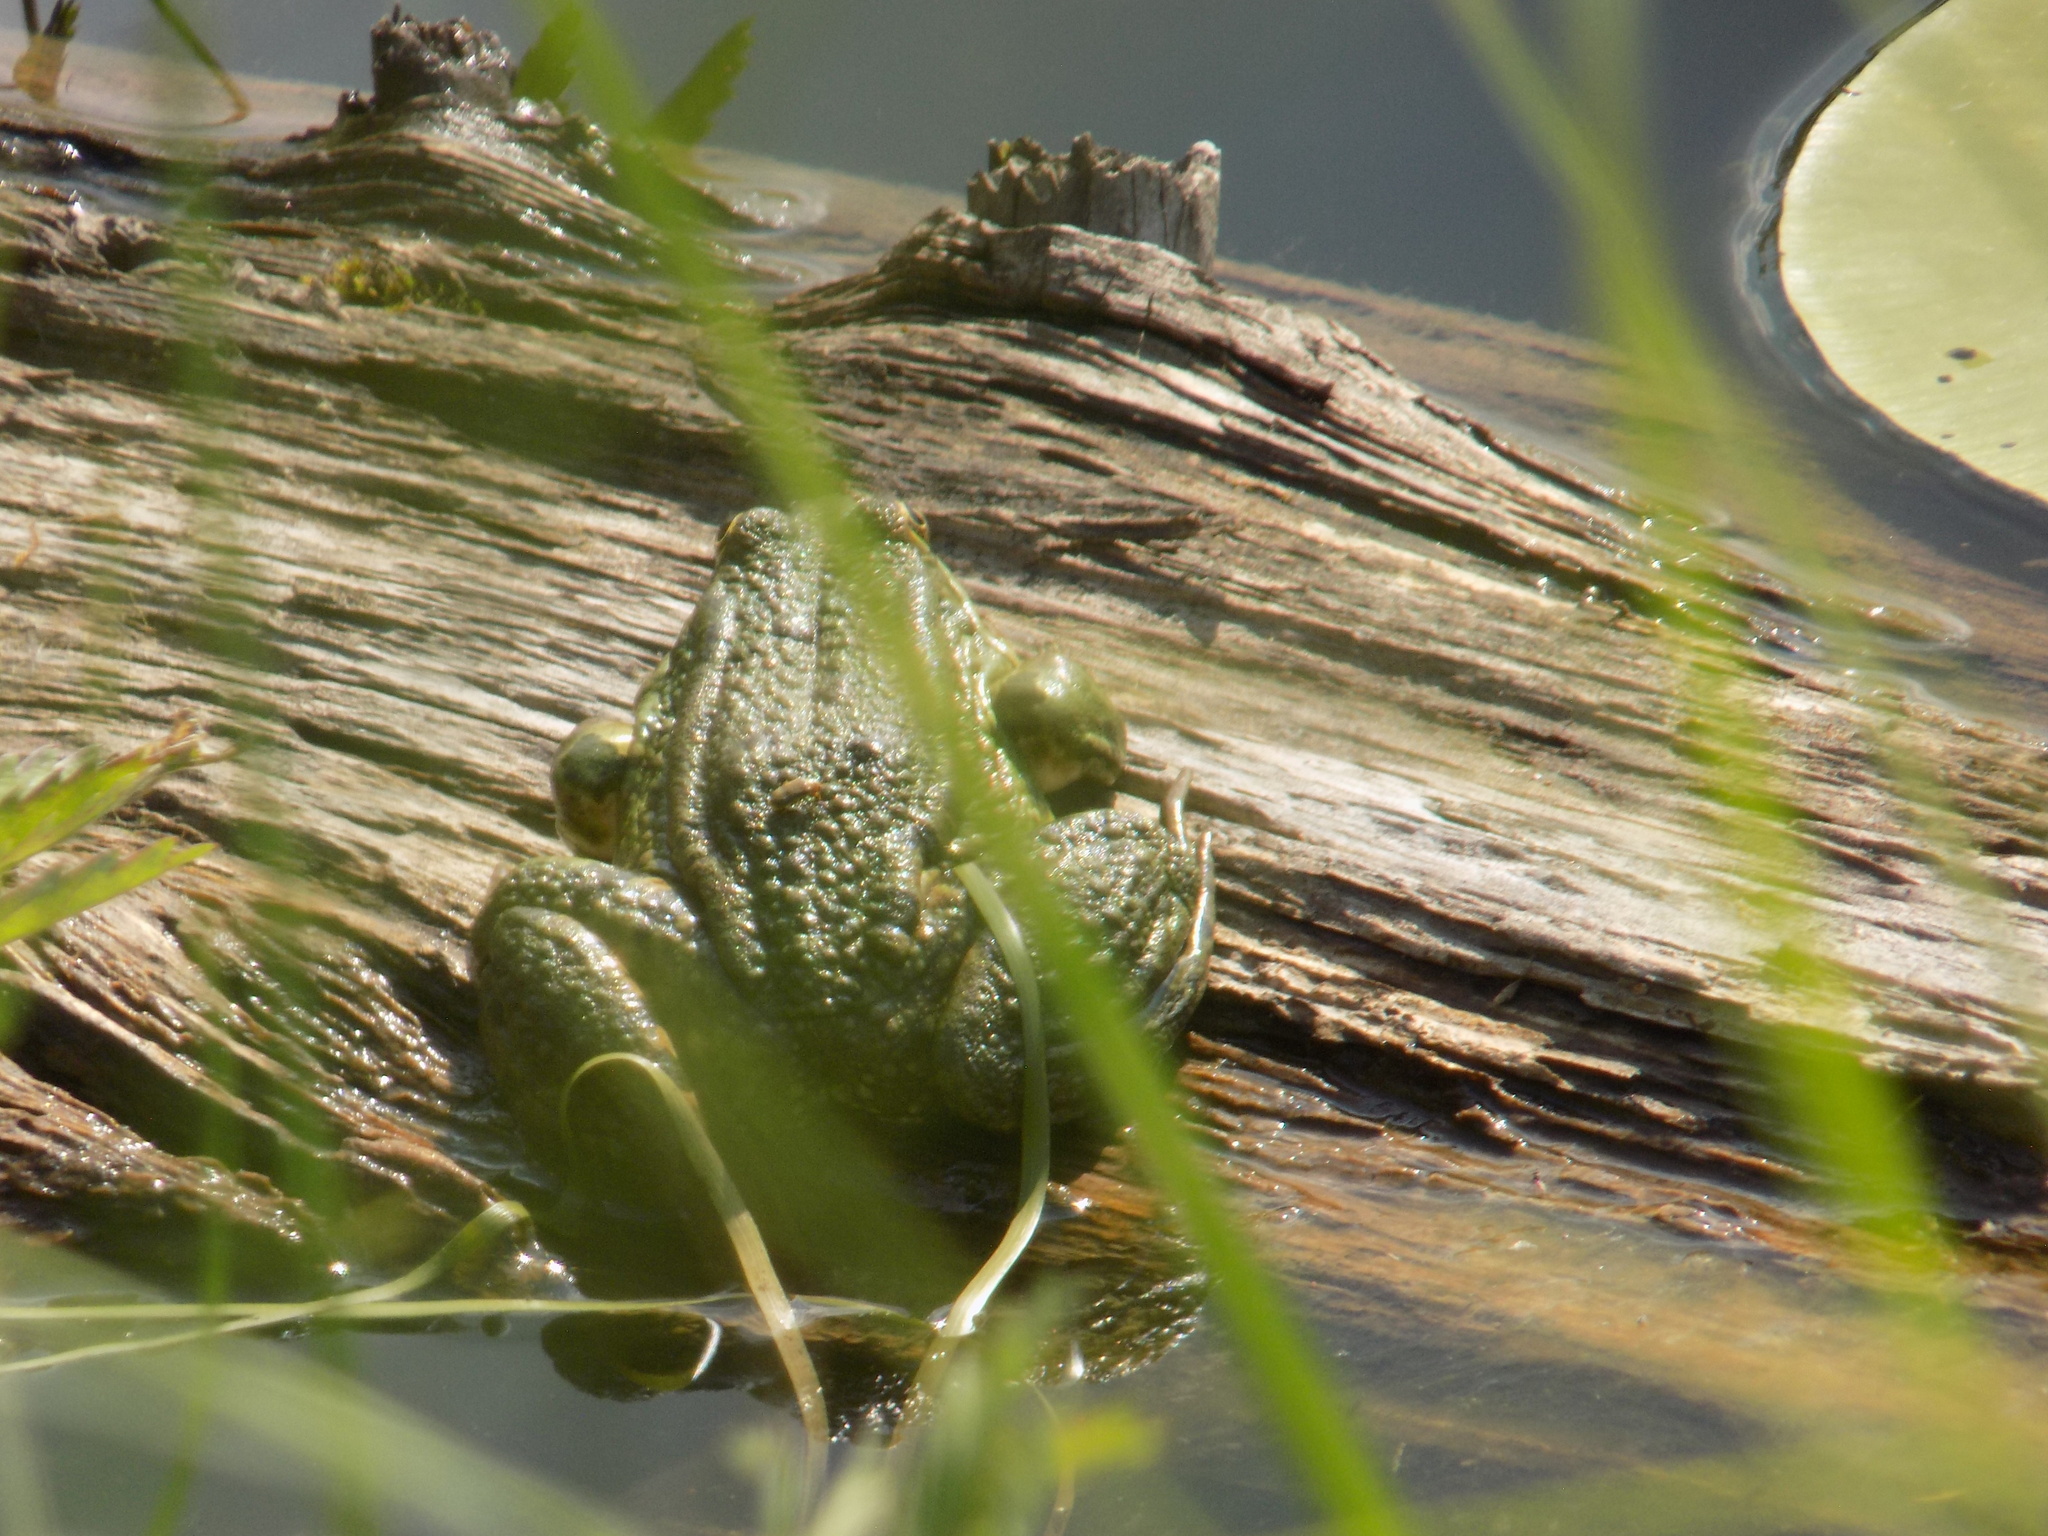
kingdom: Animalia
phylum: Chordata
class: Amphibia
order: Anura
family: Ranidae
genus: Pelophylax
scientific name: Pelophylax
